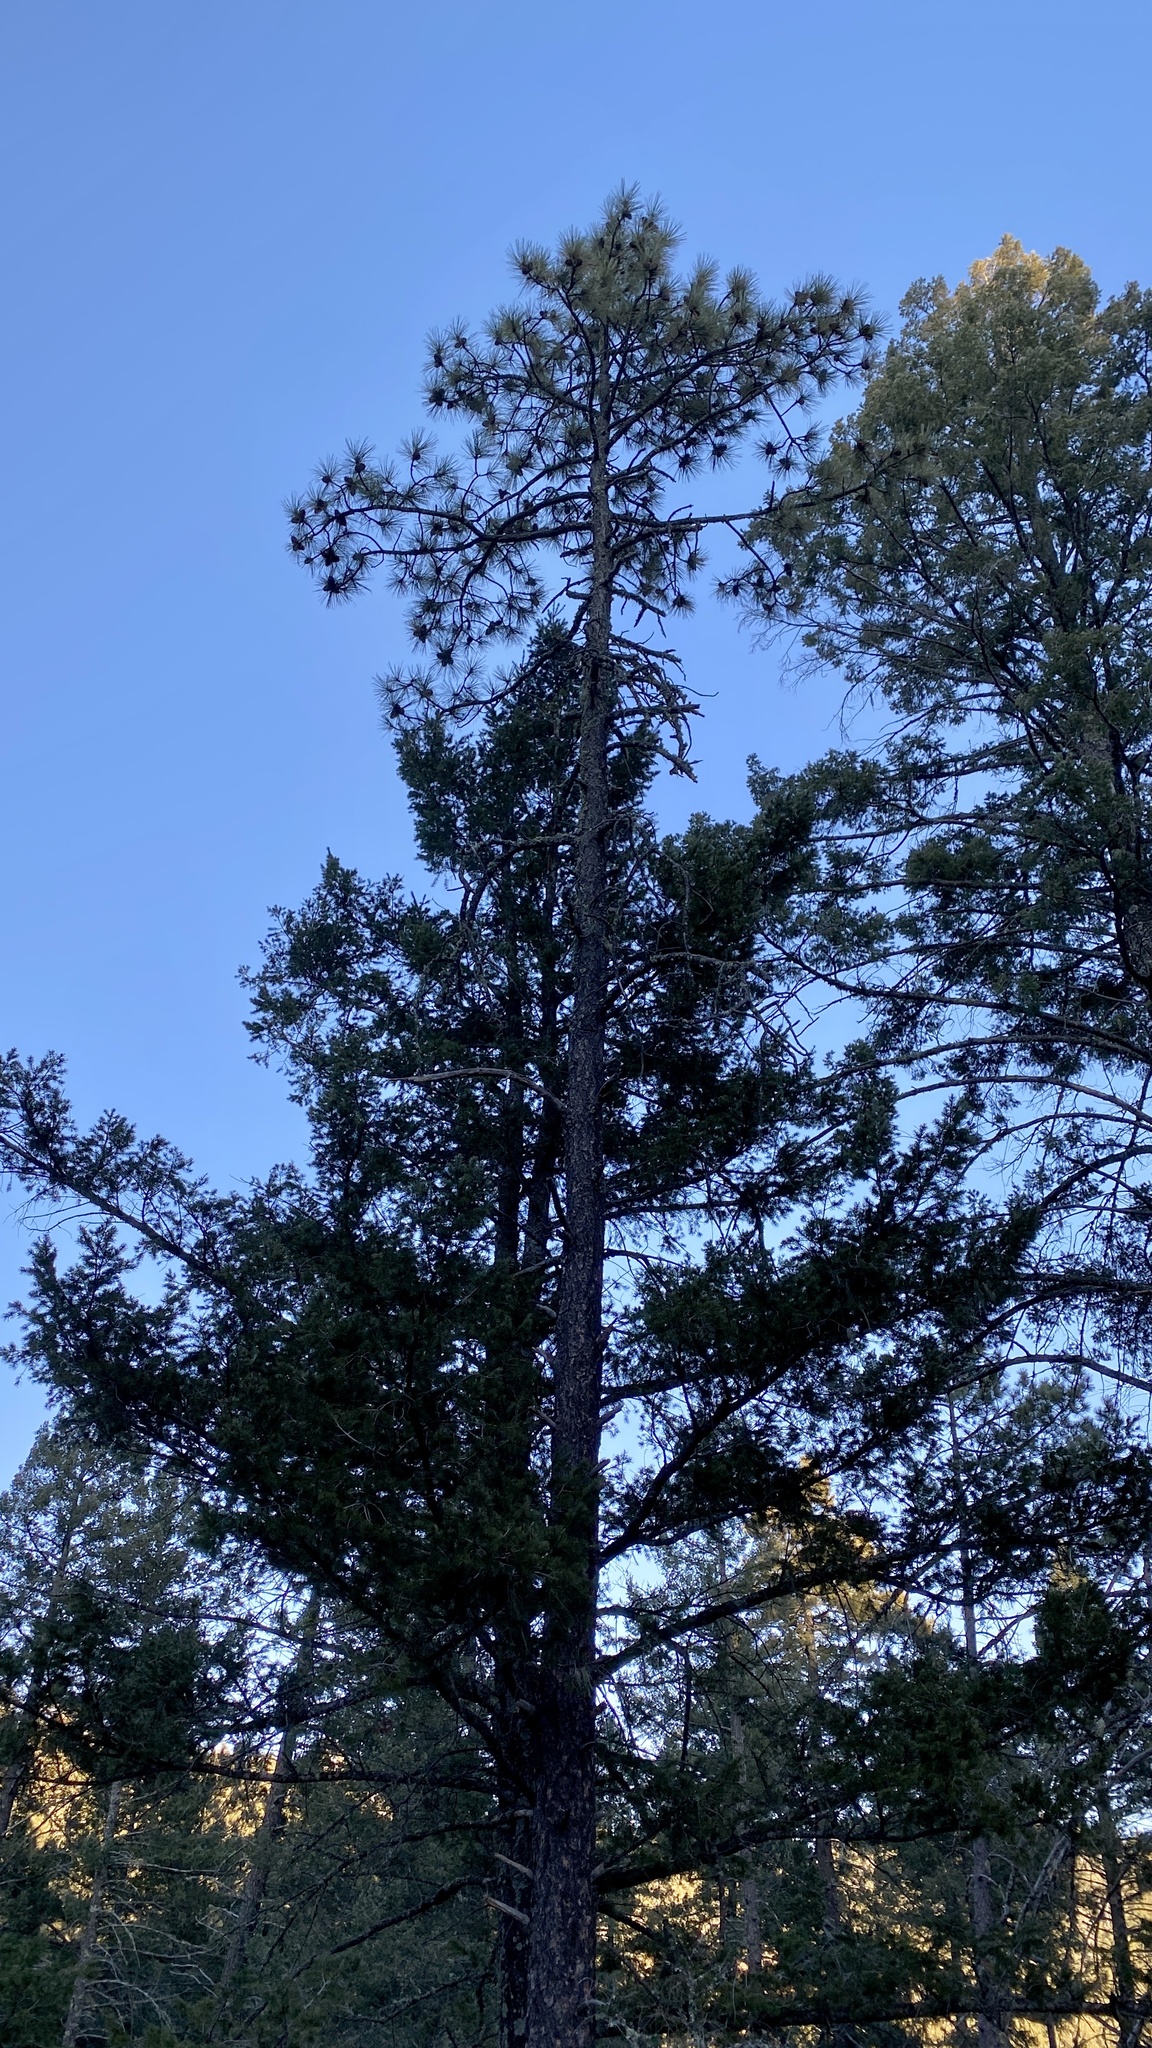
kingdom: Plantae
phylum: Tracheophyta
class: Pinopsida
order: Pinales
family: Pinaceae
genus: Pinus
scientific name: Pinus ponderosa
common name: Western yellow-pine
